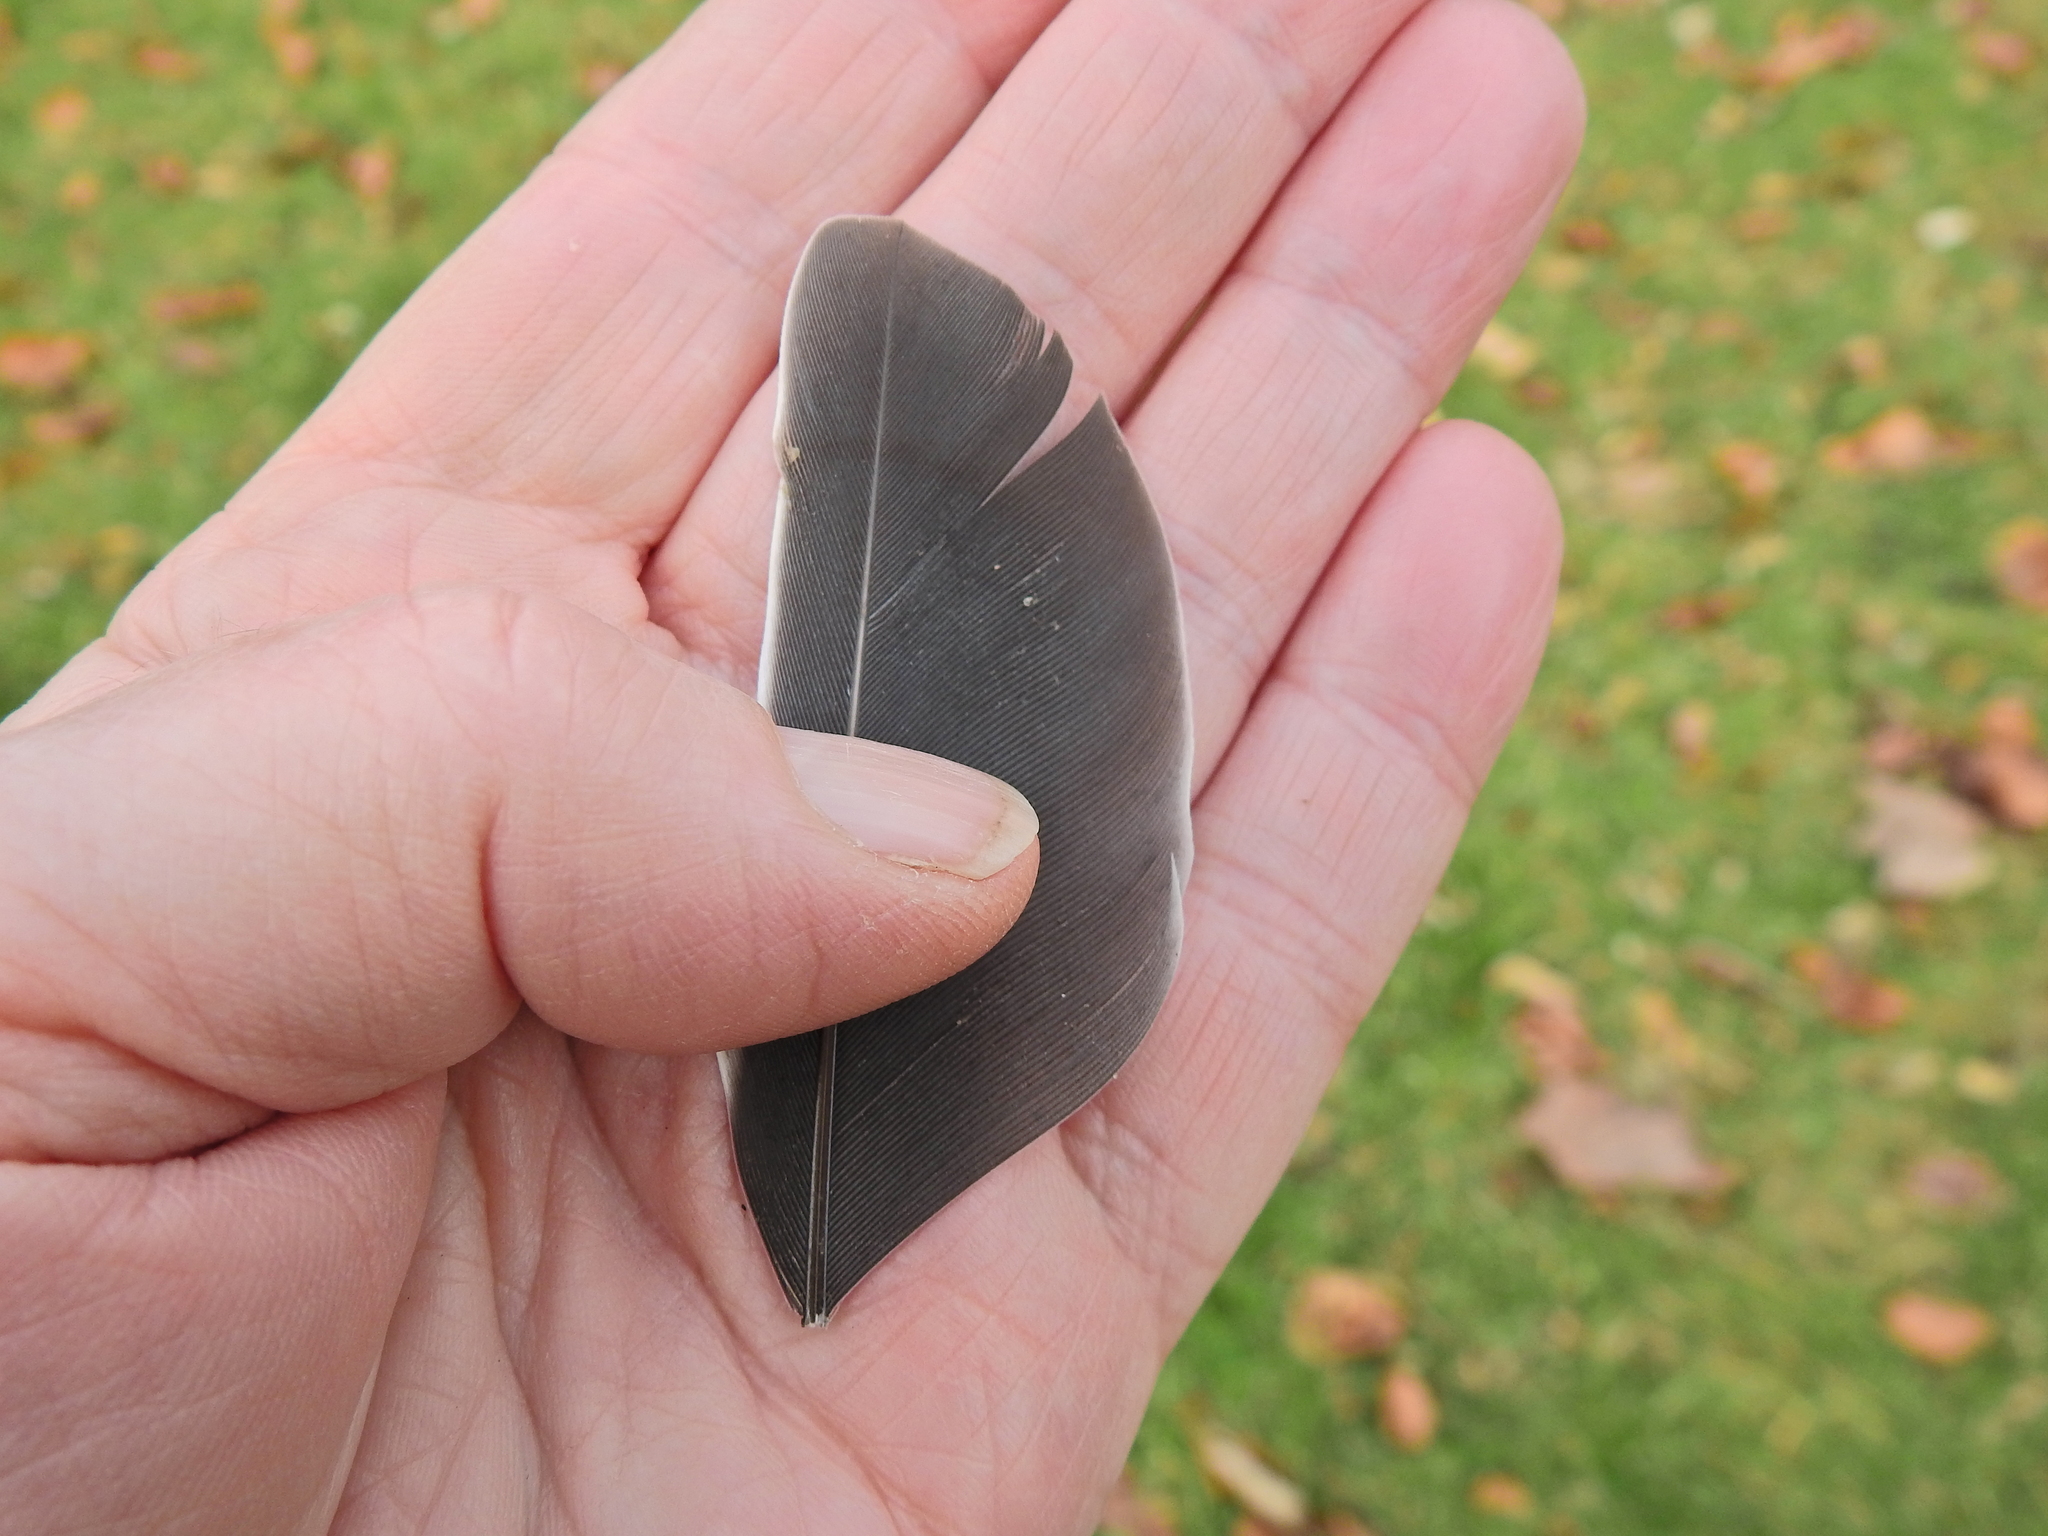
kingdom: Animalia
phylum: Chordata
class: Aves
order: Columbiformes
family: Columbidae
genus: Columba
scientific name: Columba palumbus
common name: Common wood pigeon
